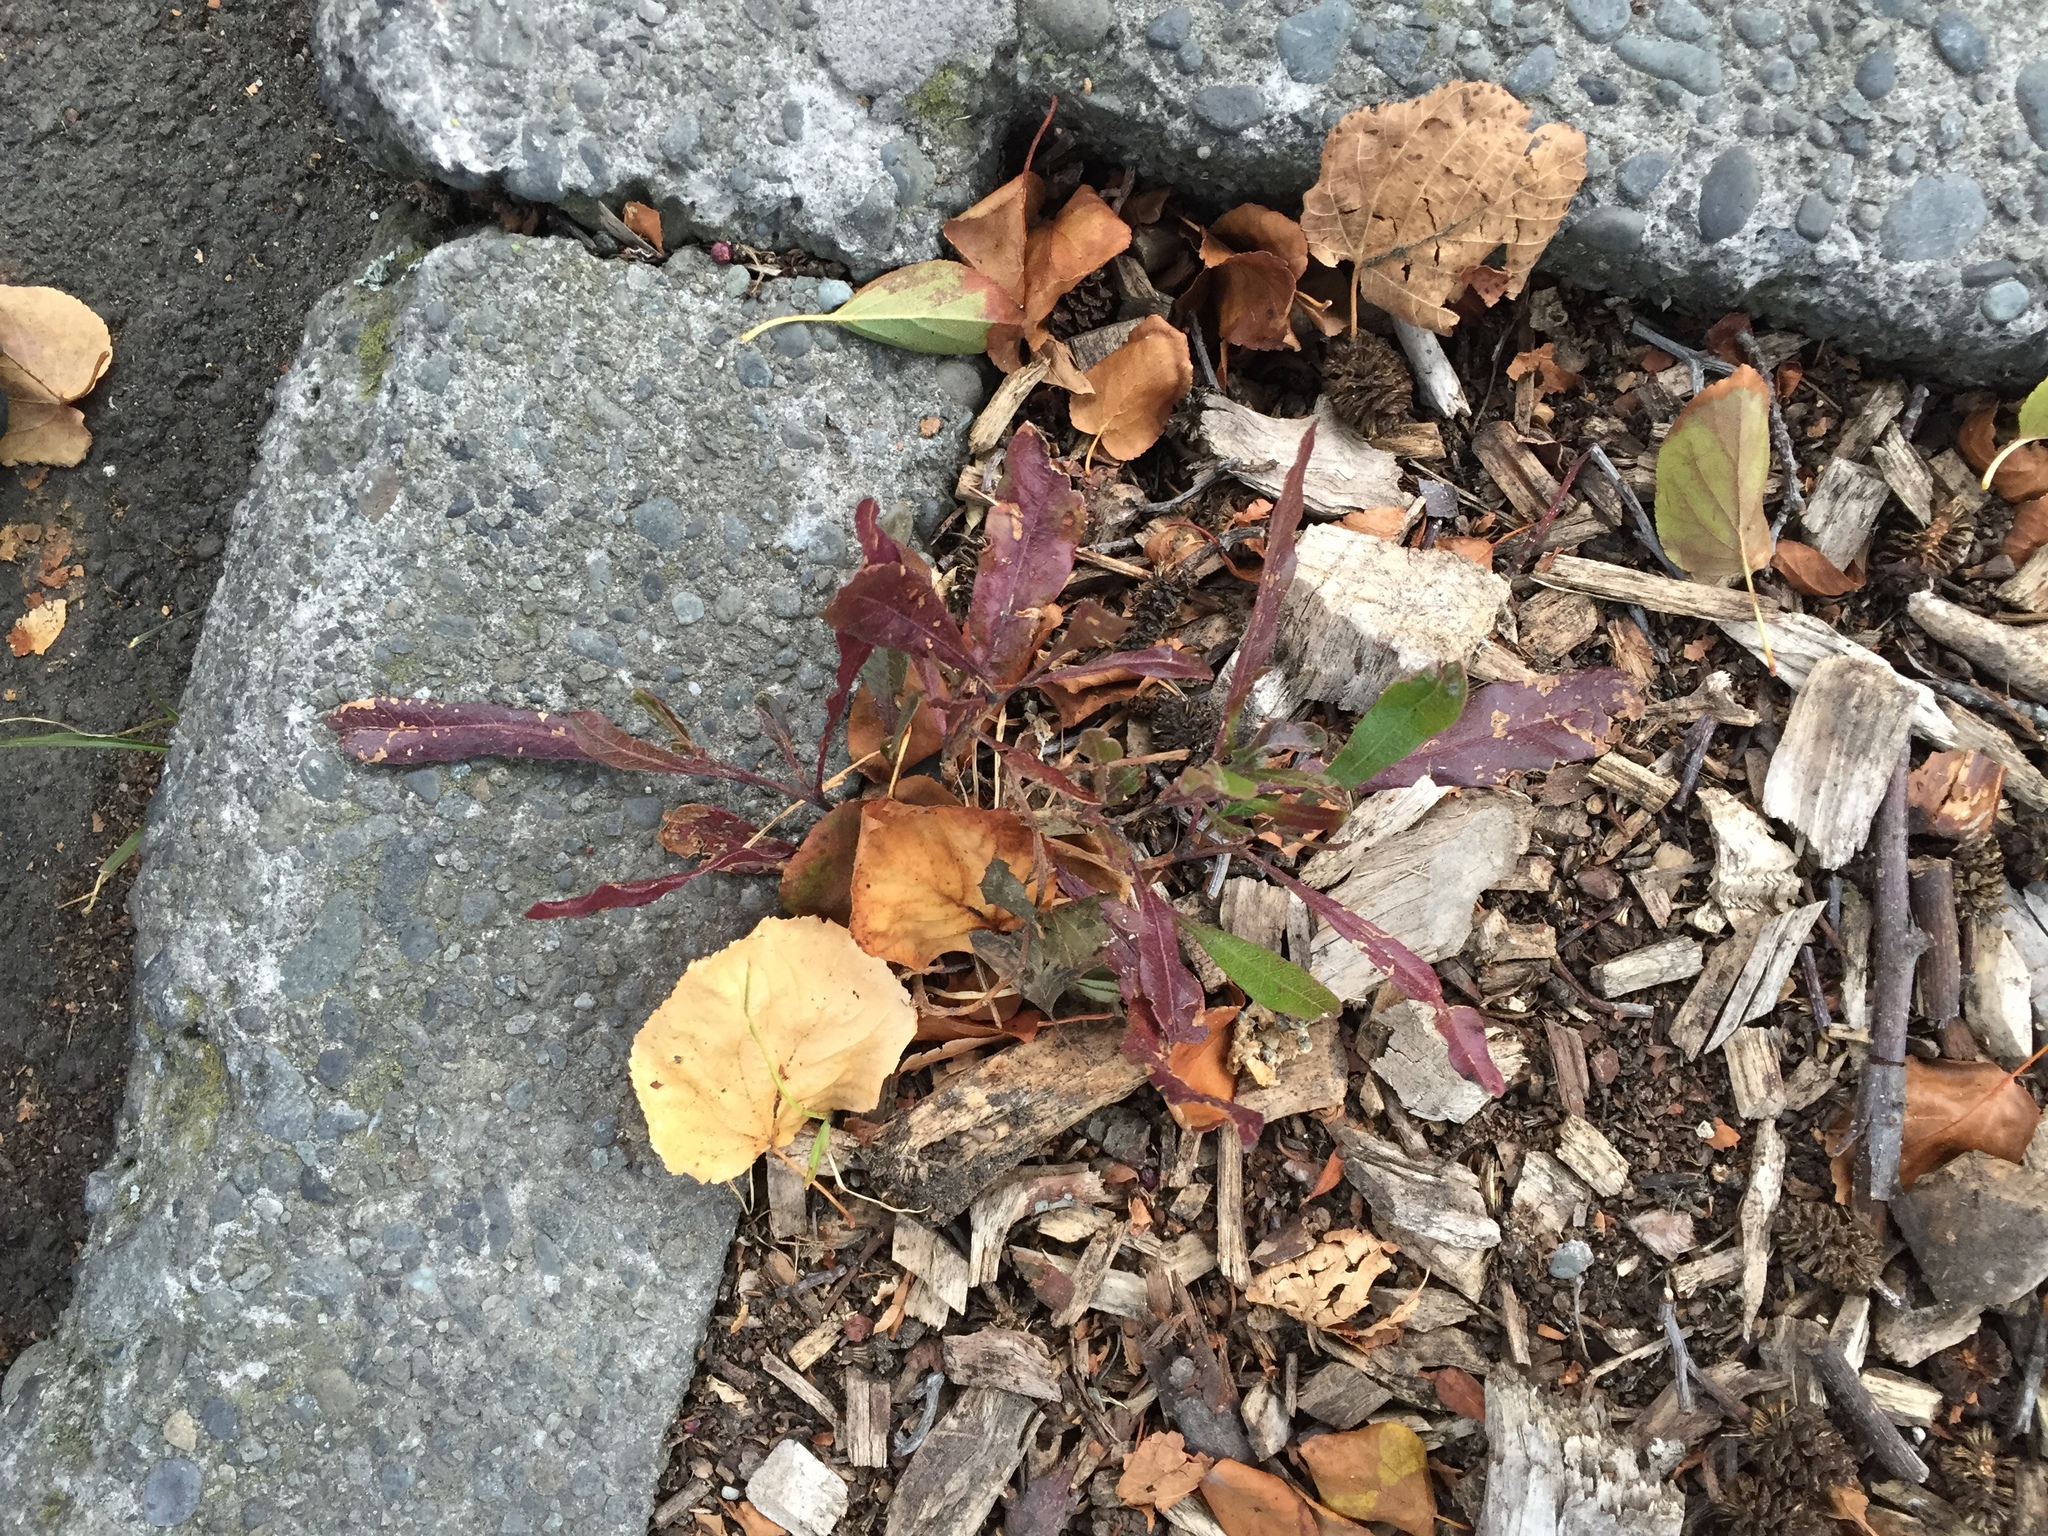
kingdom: Plantae
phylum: Tracheophyta
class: Magnoliopsida
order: Sapindales
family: Sapindaceae
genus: Dodonaea
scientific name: Dodonaea viscosa
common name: Hopbush
